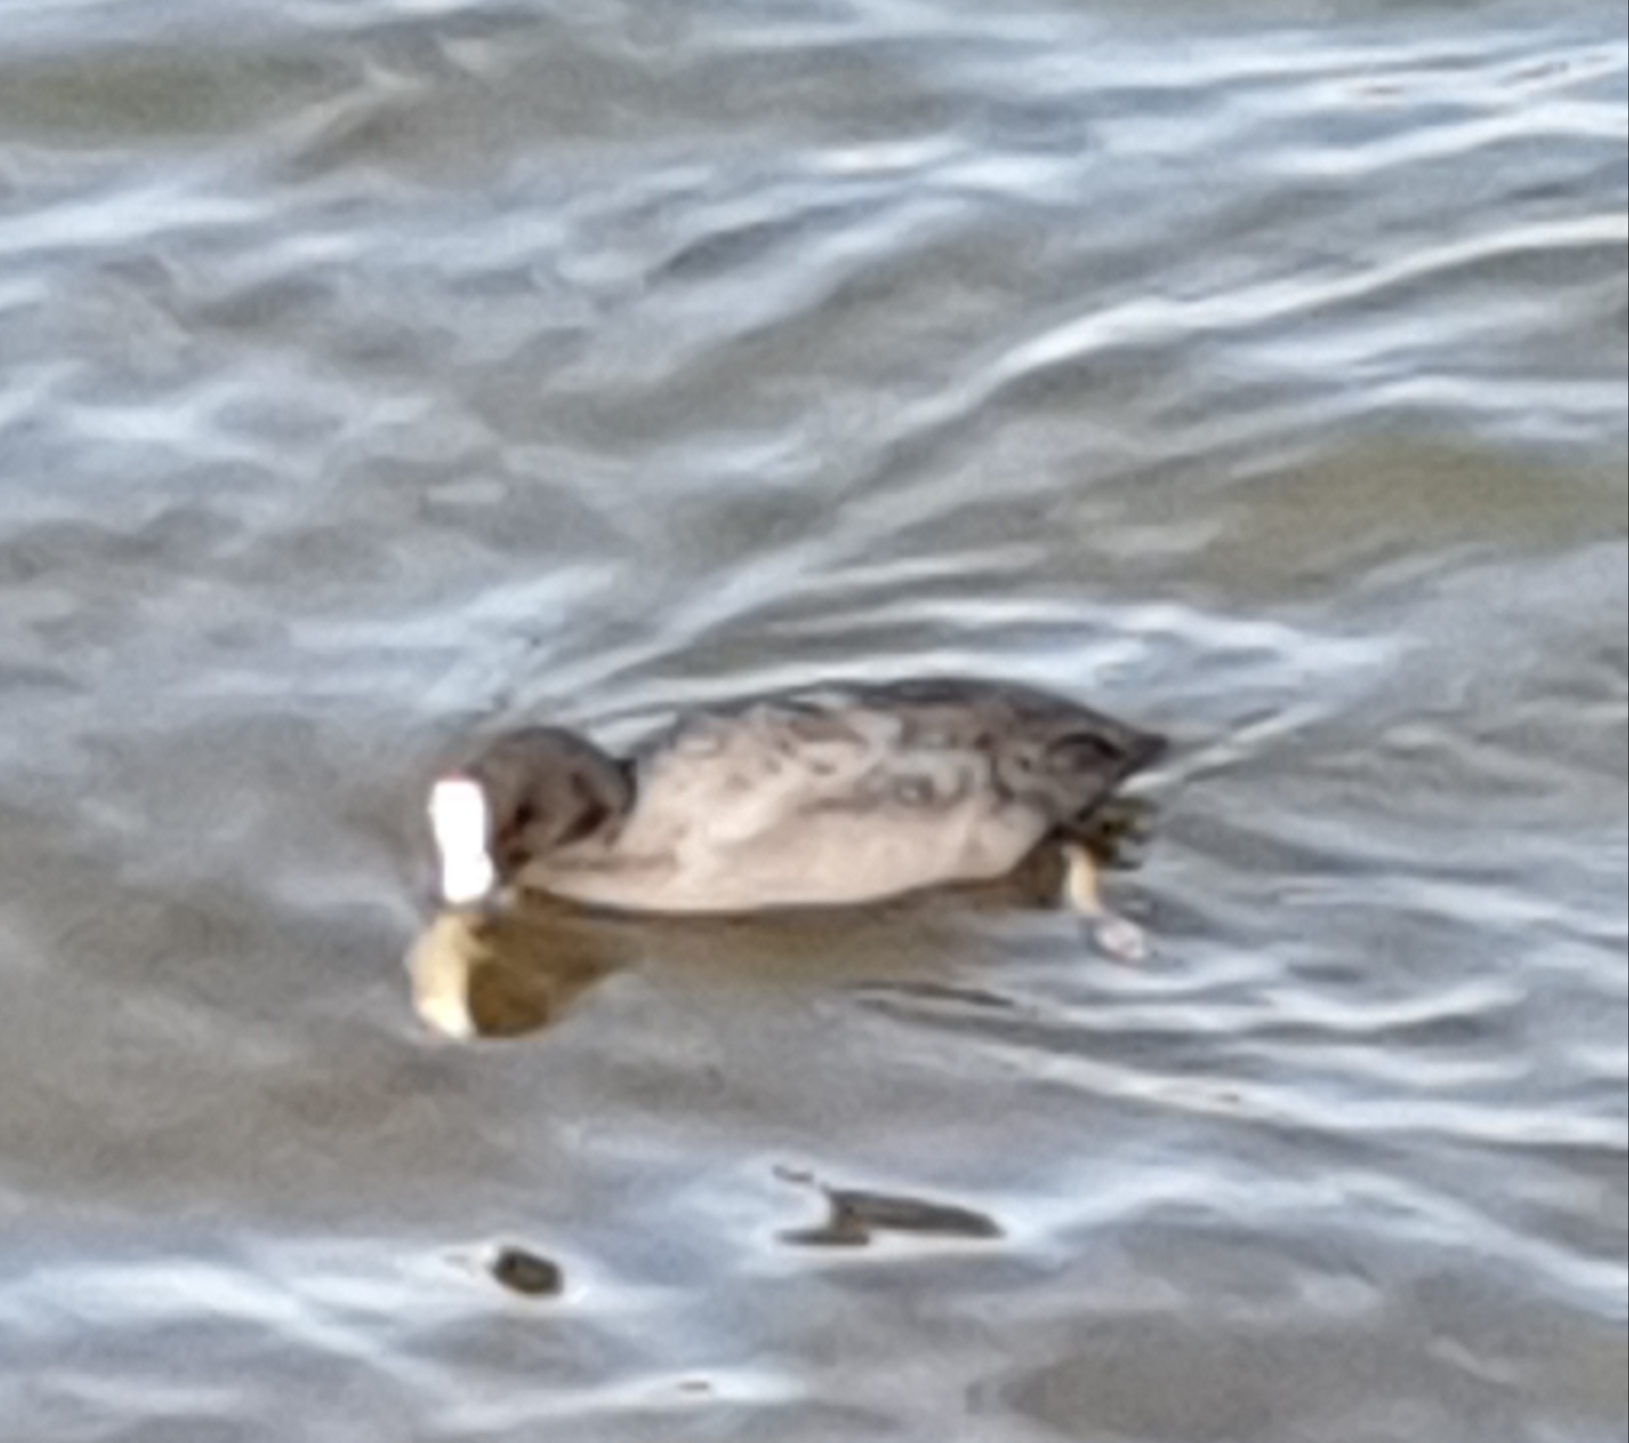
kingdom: Animalia
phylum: Chordata
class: Aves
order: Gruiformes
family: Rallidae
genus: Fulica
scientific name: Fulica atra
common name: Eurasian coot
